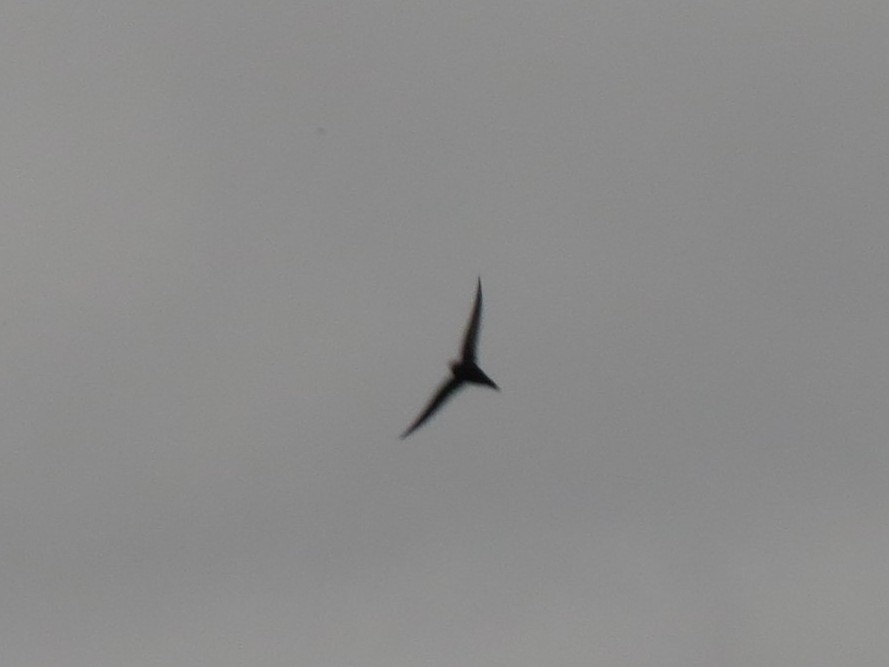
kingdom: Animalia
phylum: Chordata
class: Aves
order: Apodiformes
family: Apodidae
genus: Apus
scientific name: Apus apus
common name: Common swift
